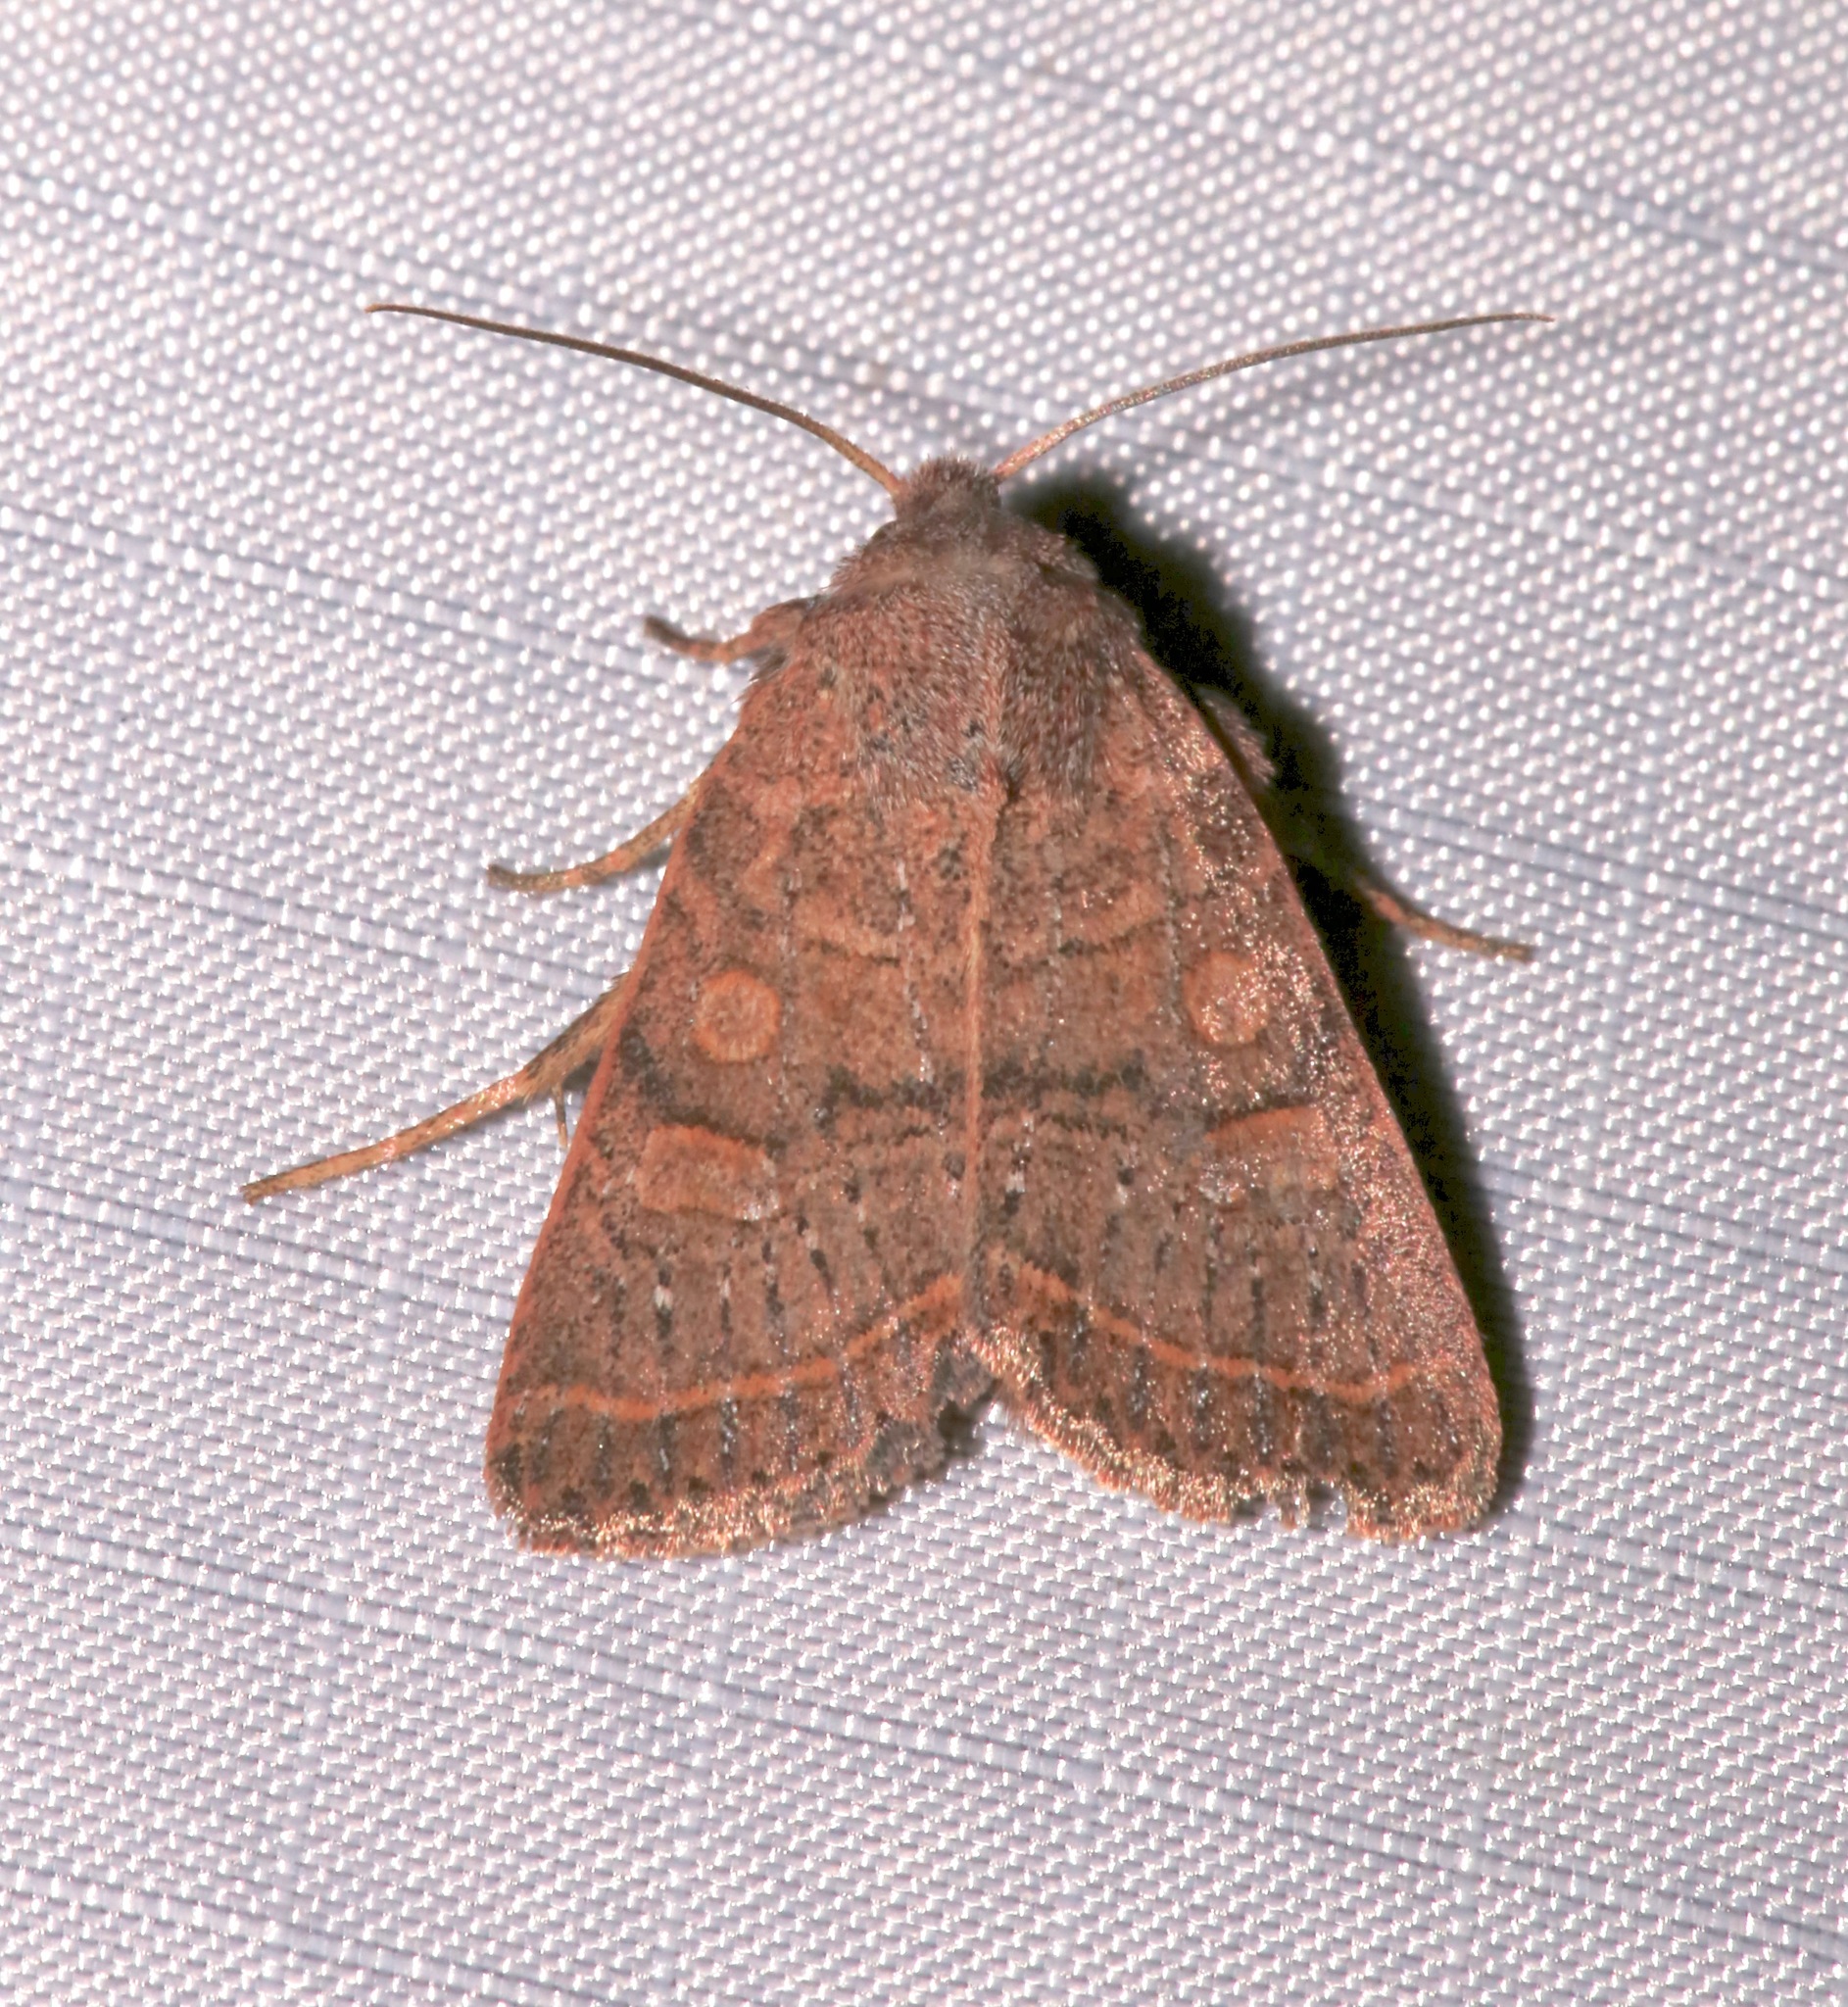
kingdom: Animalia
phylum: Arthropoda
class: Insecta
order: Lepidoptera
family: Noctuidae
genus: Homorthodes
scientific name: Homorthodes rectiflava
